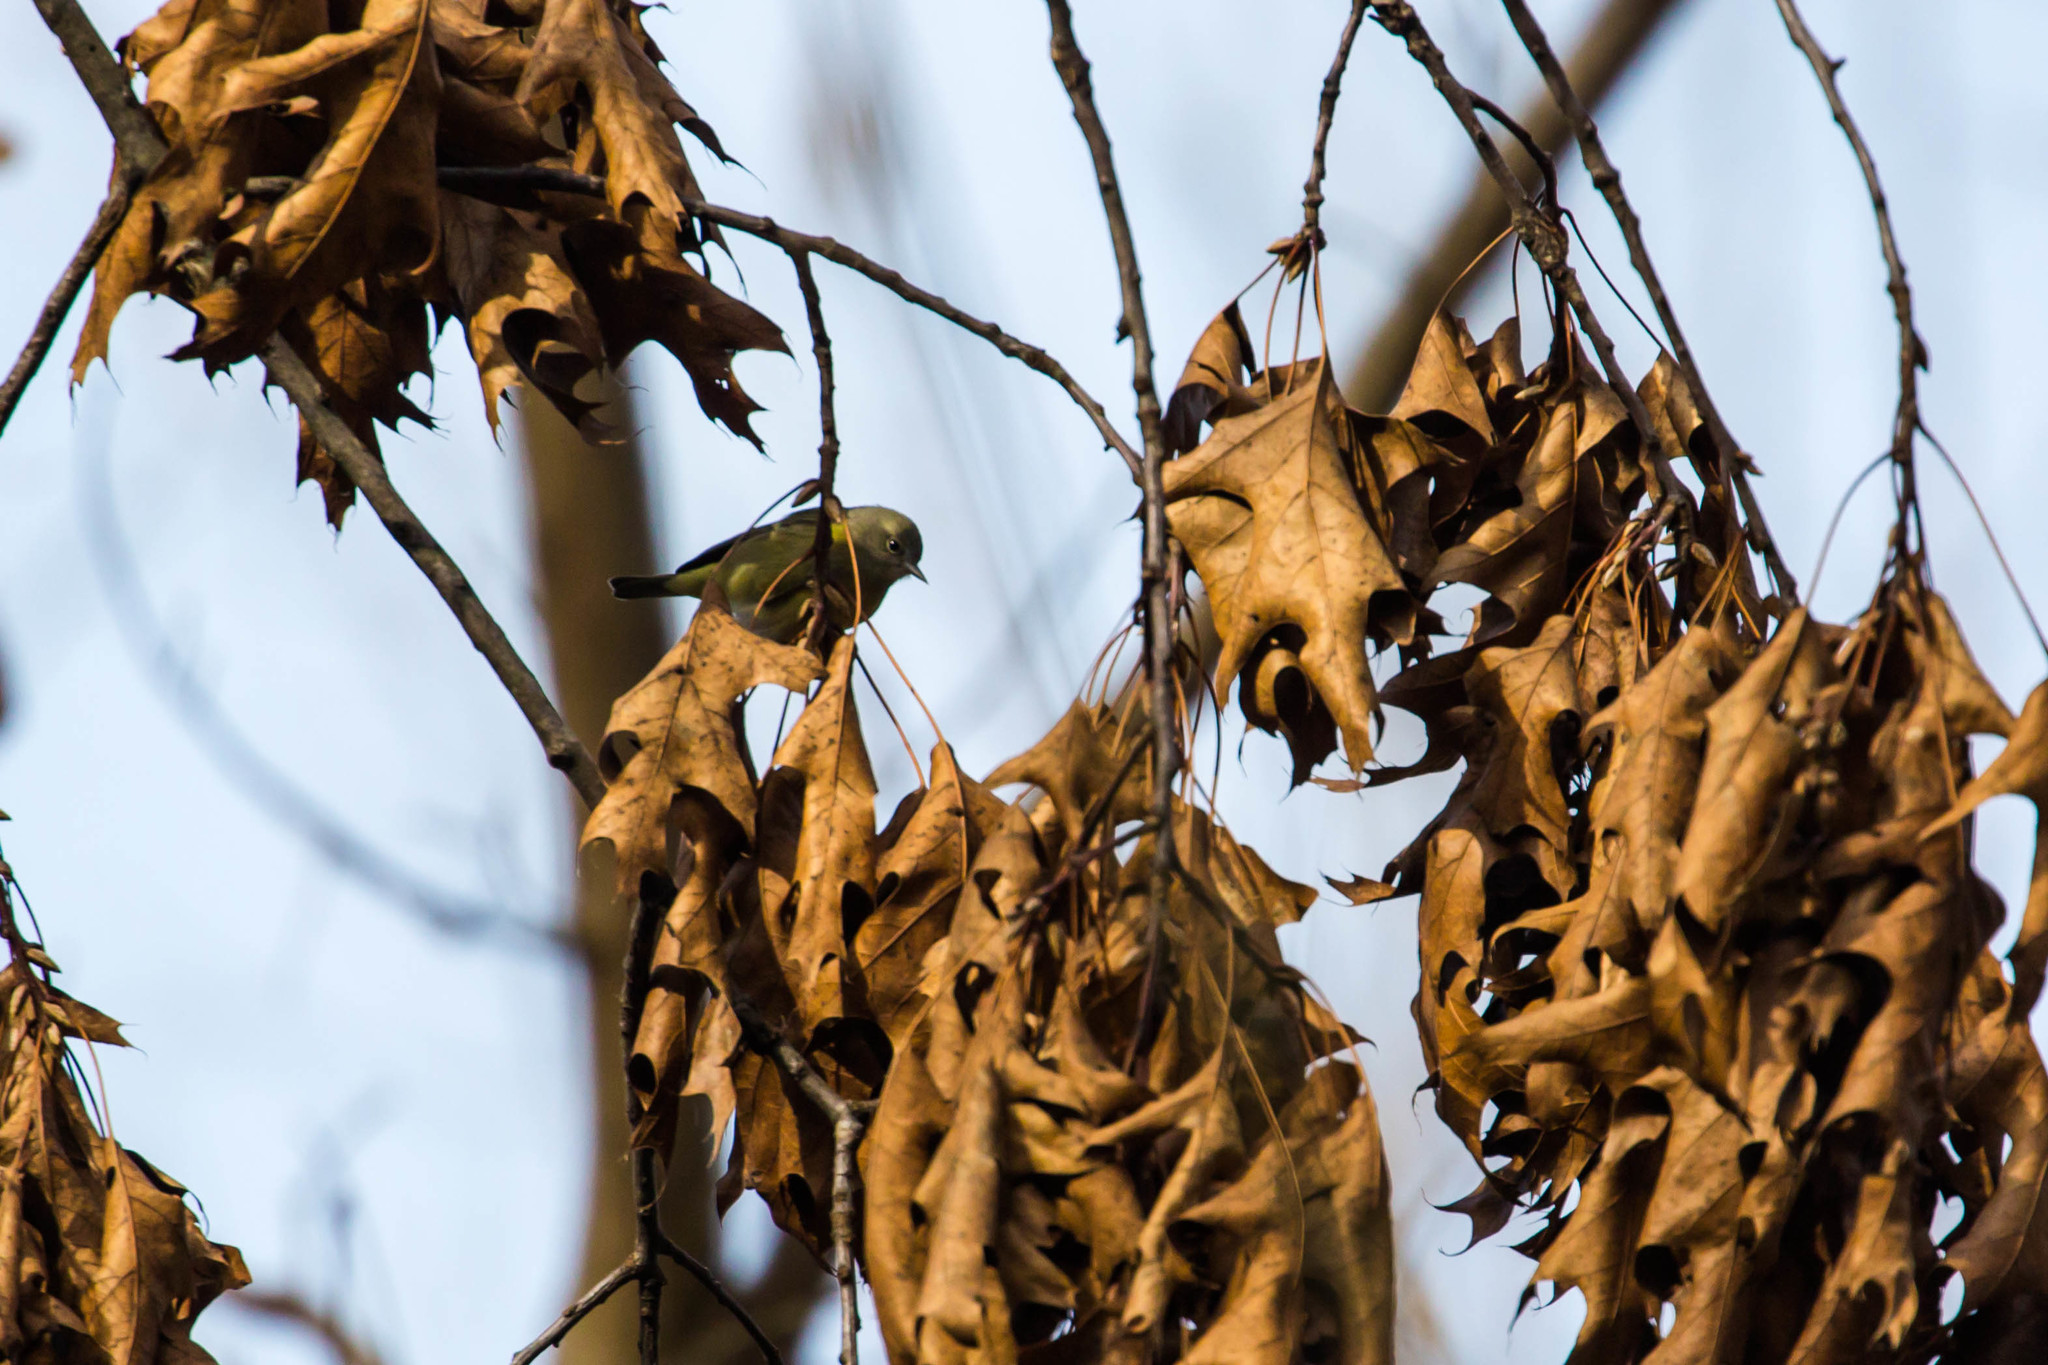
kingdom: Animalia
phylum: Chordata
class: Aves
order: Passeriformes
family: Parulidae
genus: Leiothlypis
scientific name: Leiothlypis celata
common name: Orange-crowned warbler
